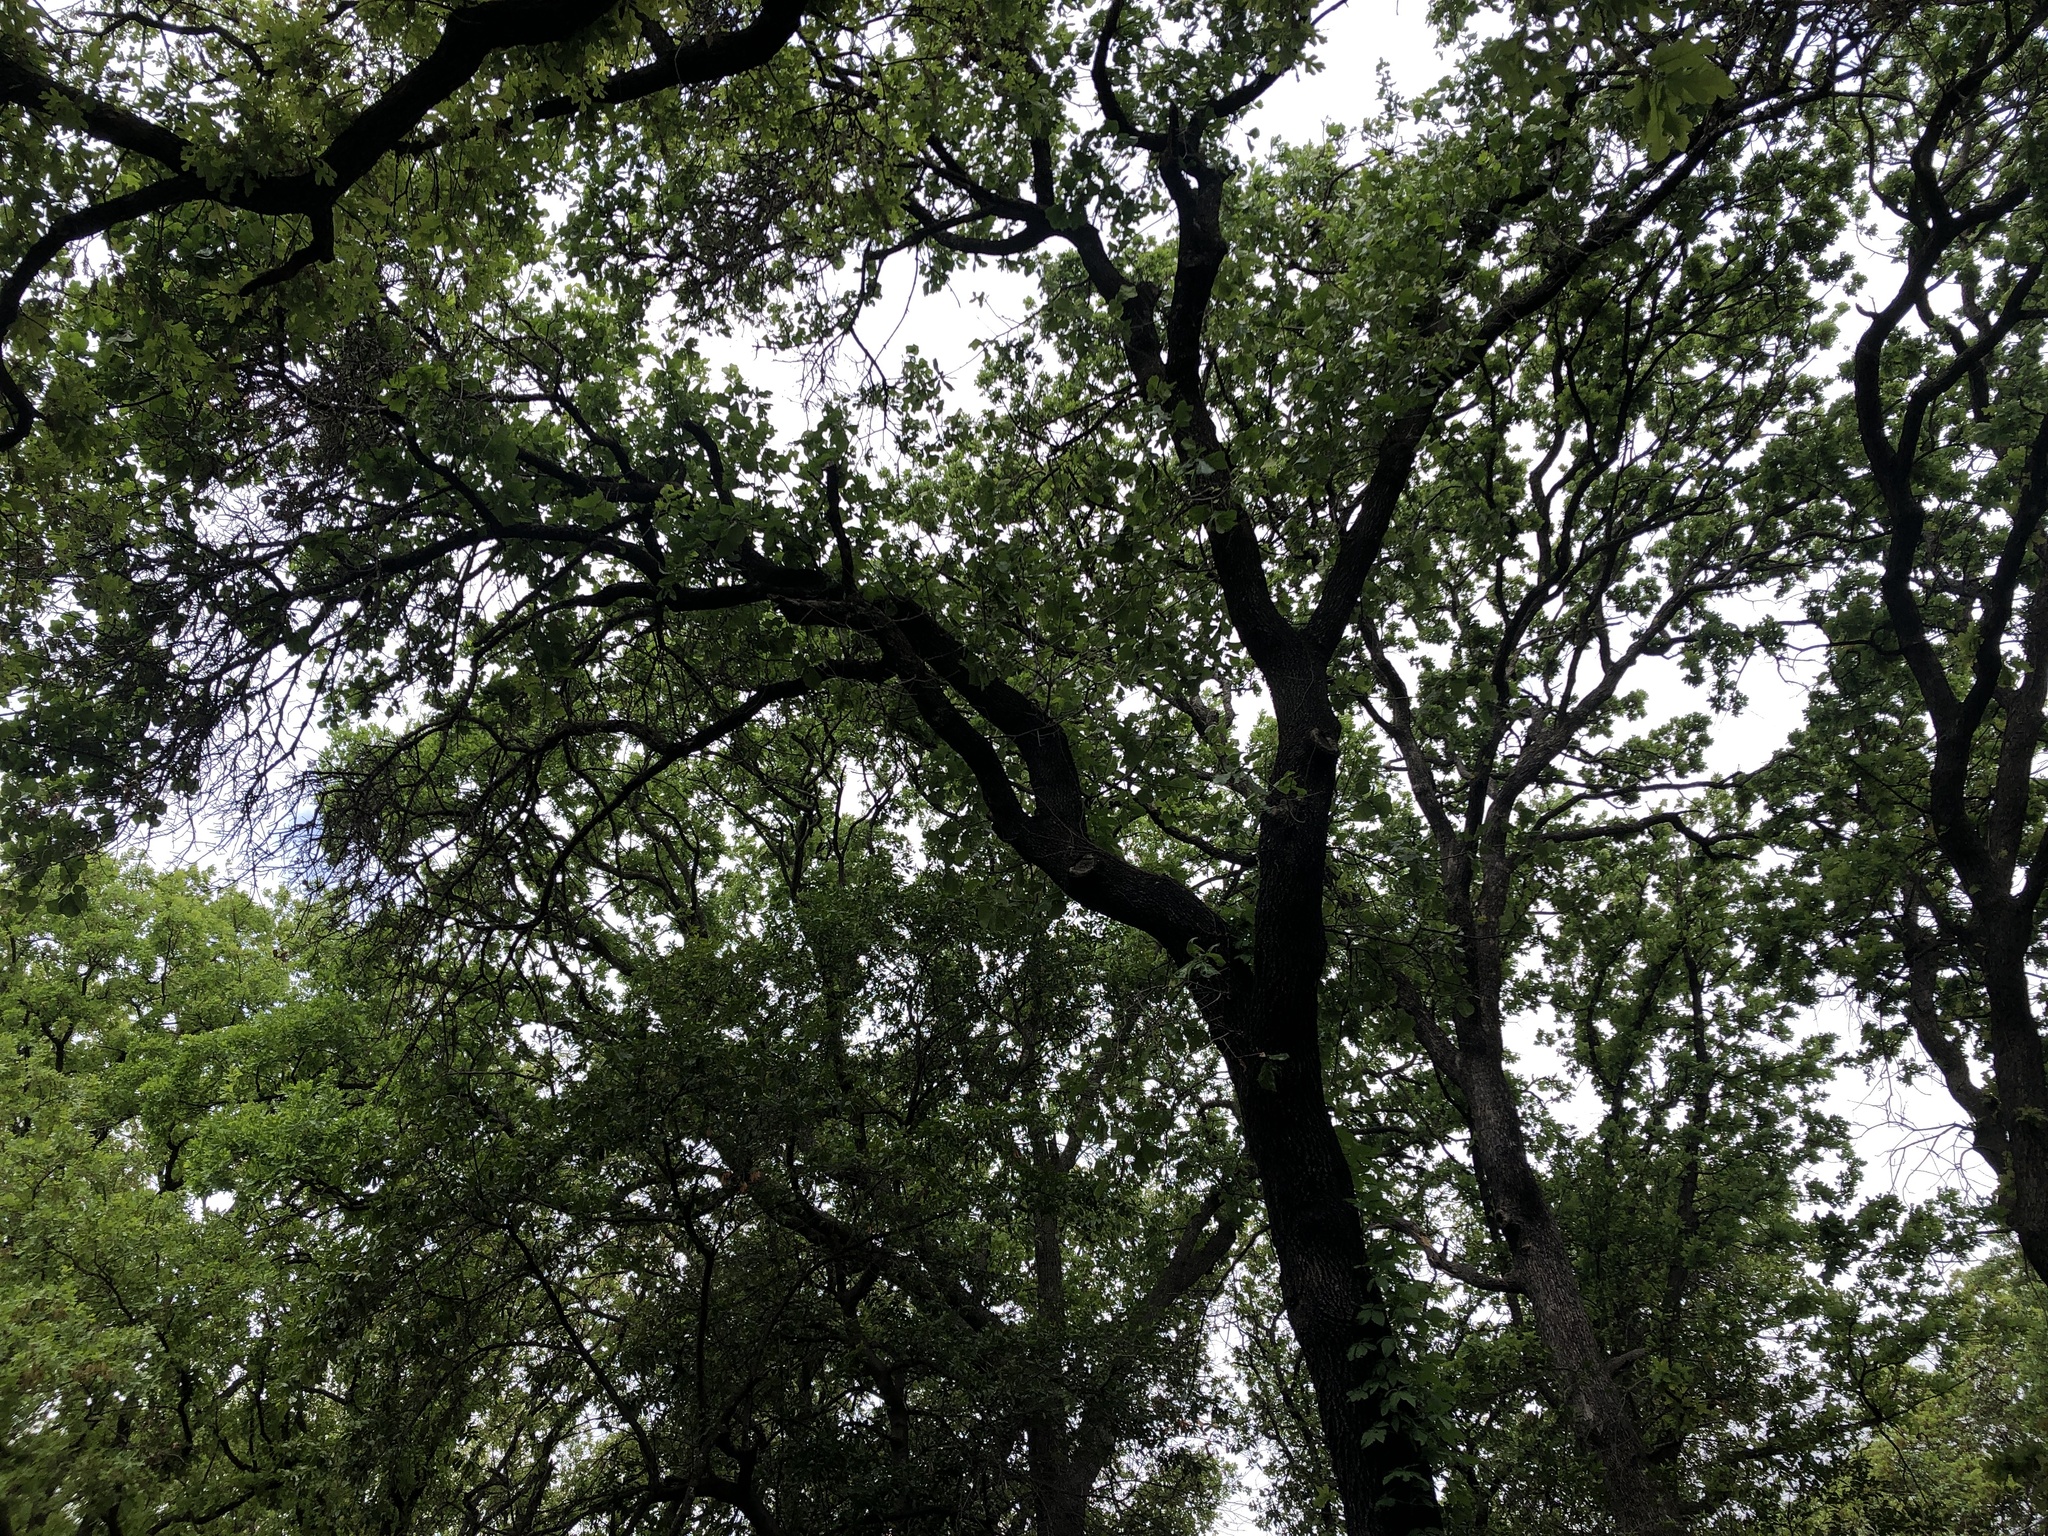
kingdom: Animalia
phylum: Chordata
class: Aves
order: Passeriformes
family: Troglodytidae
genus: Thryomanes
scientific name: Thryomanes bewickii
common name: Bewick's wren
